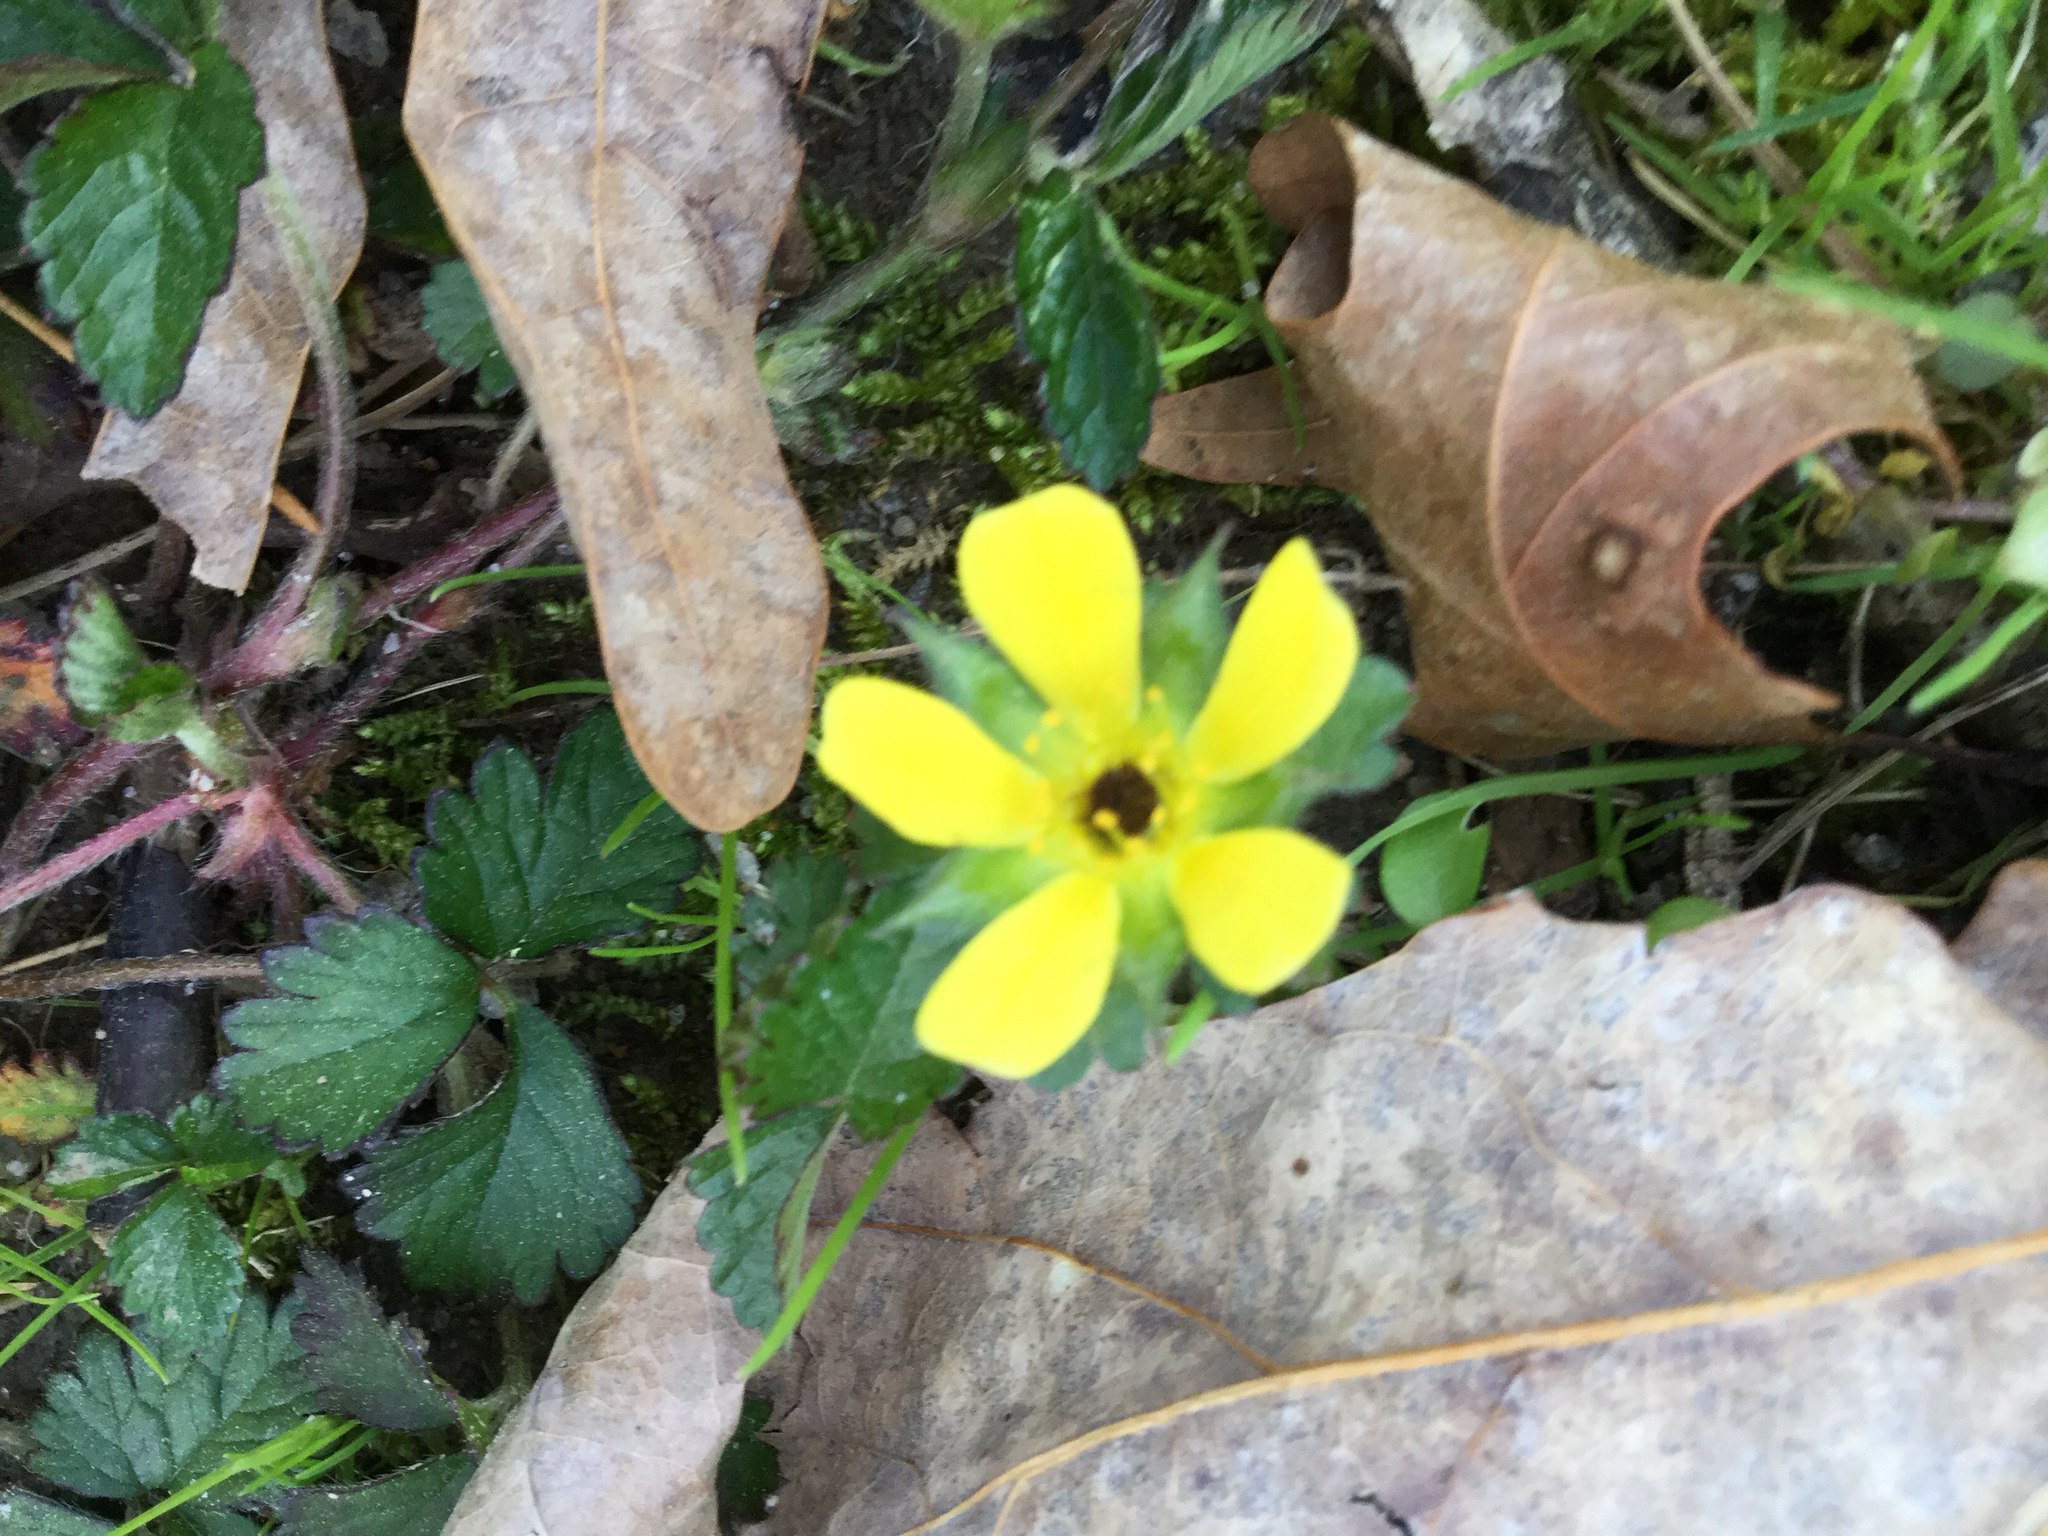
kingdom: Plantae
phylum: Tracheophyta
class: Magnoliopsida
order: Rosales
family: Rosaceae
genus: Potentilla
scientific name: Potentilla indica
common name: Yellow-flowered strawberry
